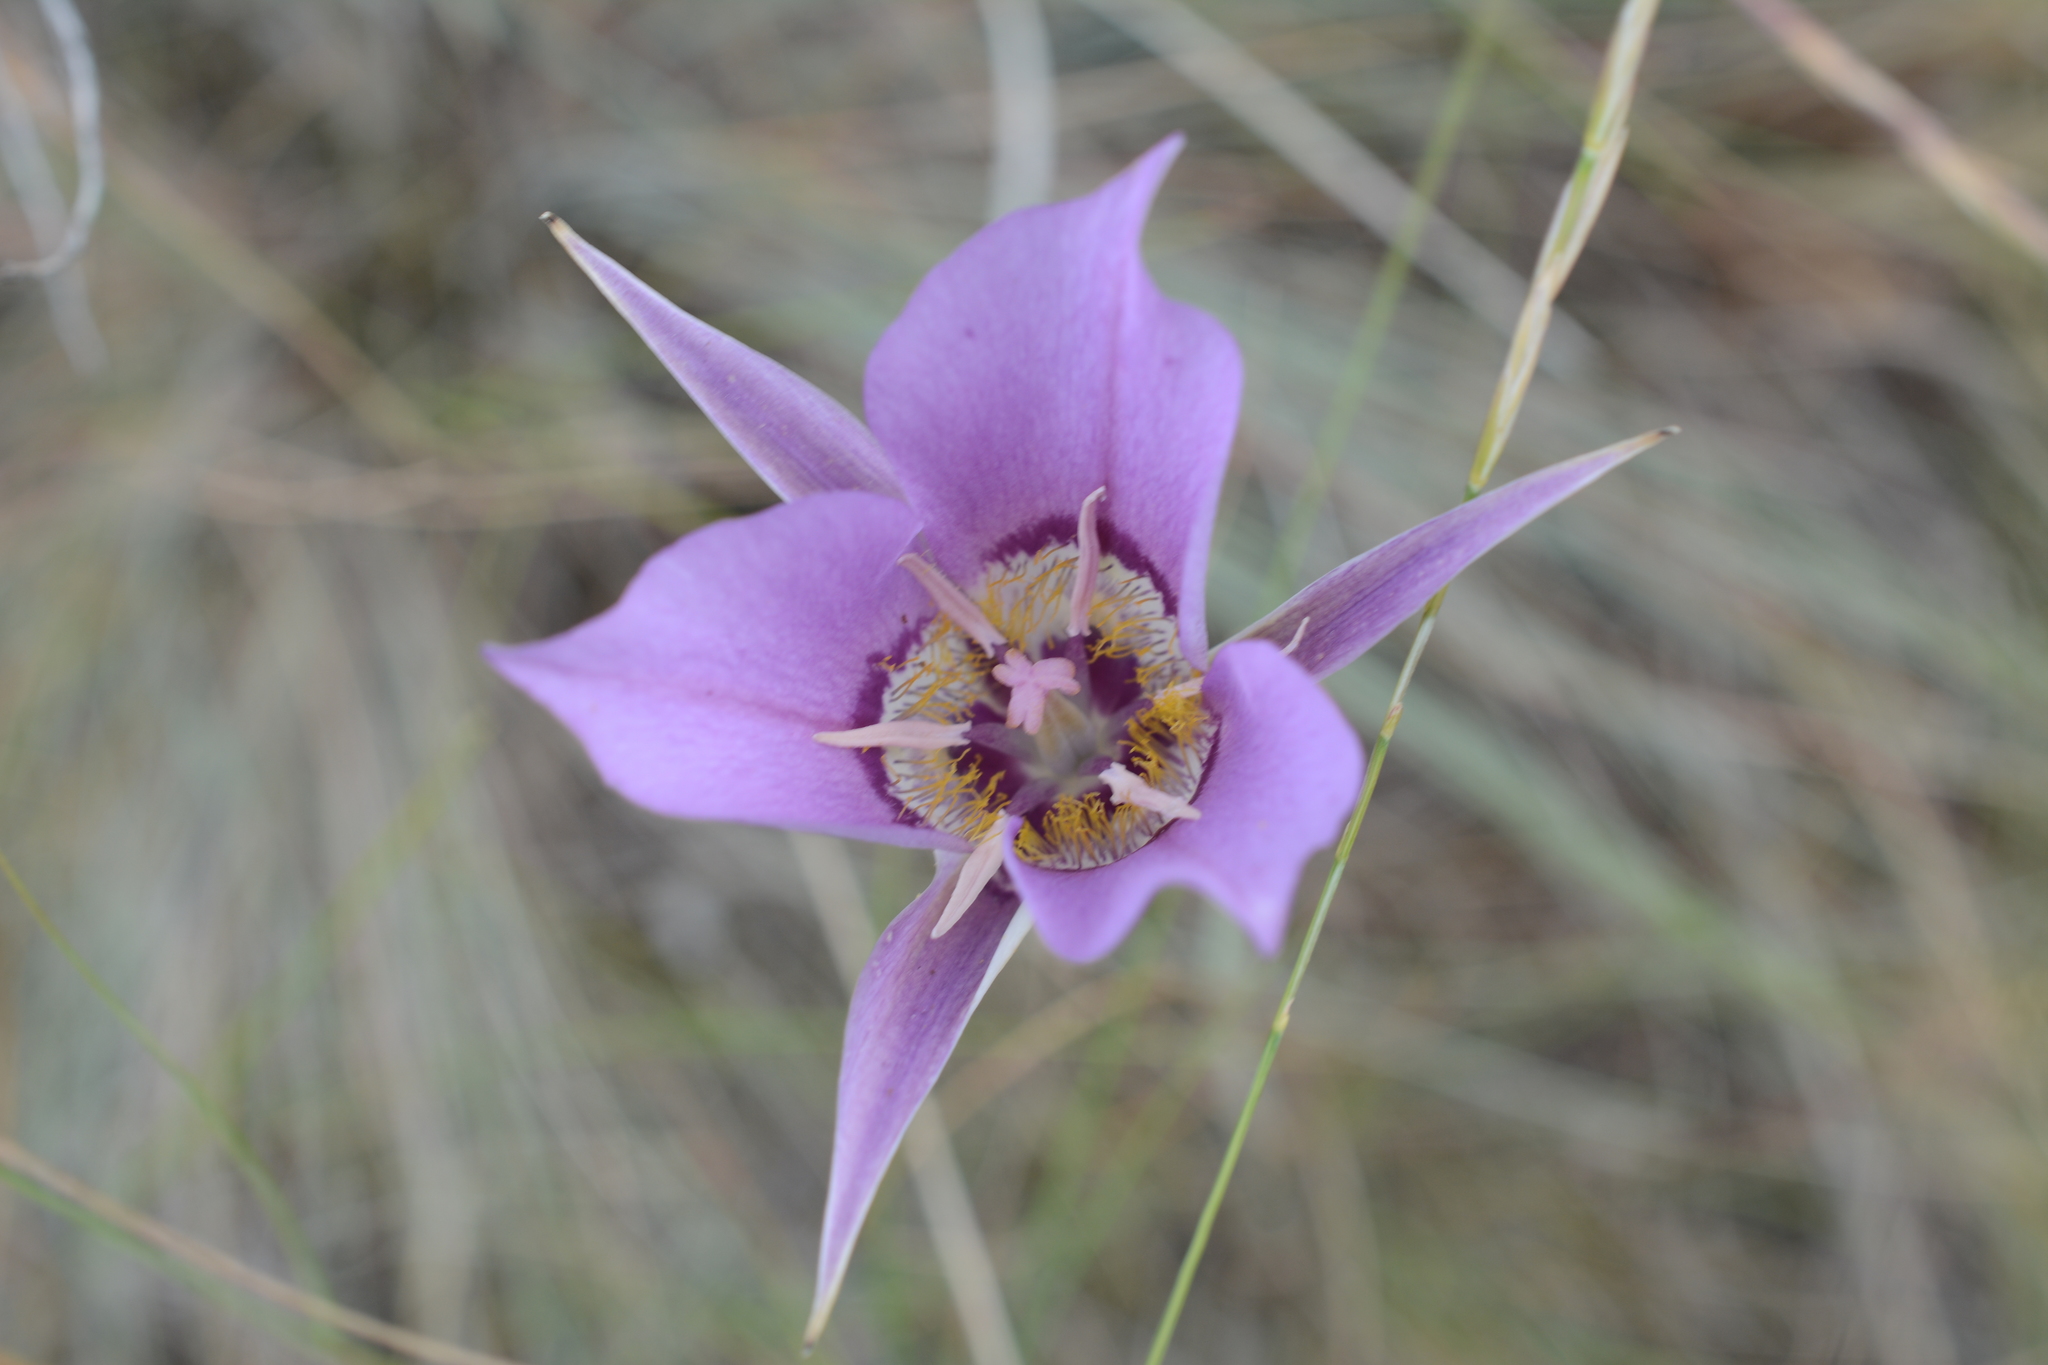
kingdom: Plantae
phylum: Tracheophyta
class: Liliopsida
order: Liliales
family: Liliaceae
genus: Calochortus
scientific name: Calochortus macrocarpus
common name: Green-band mariposa lily
